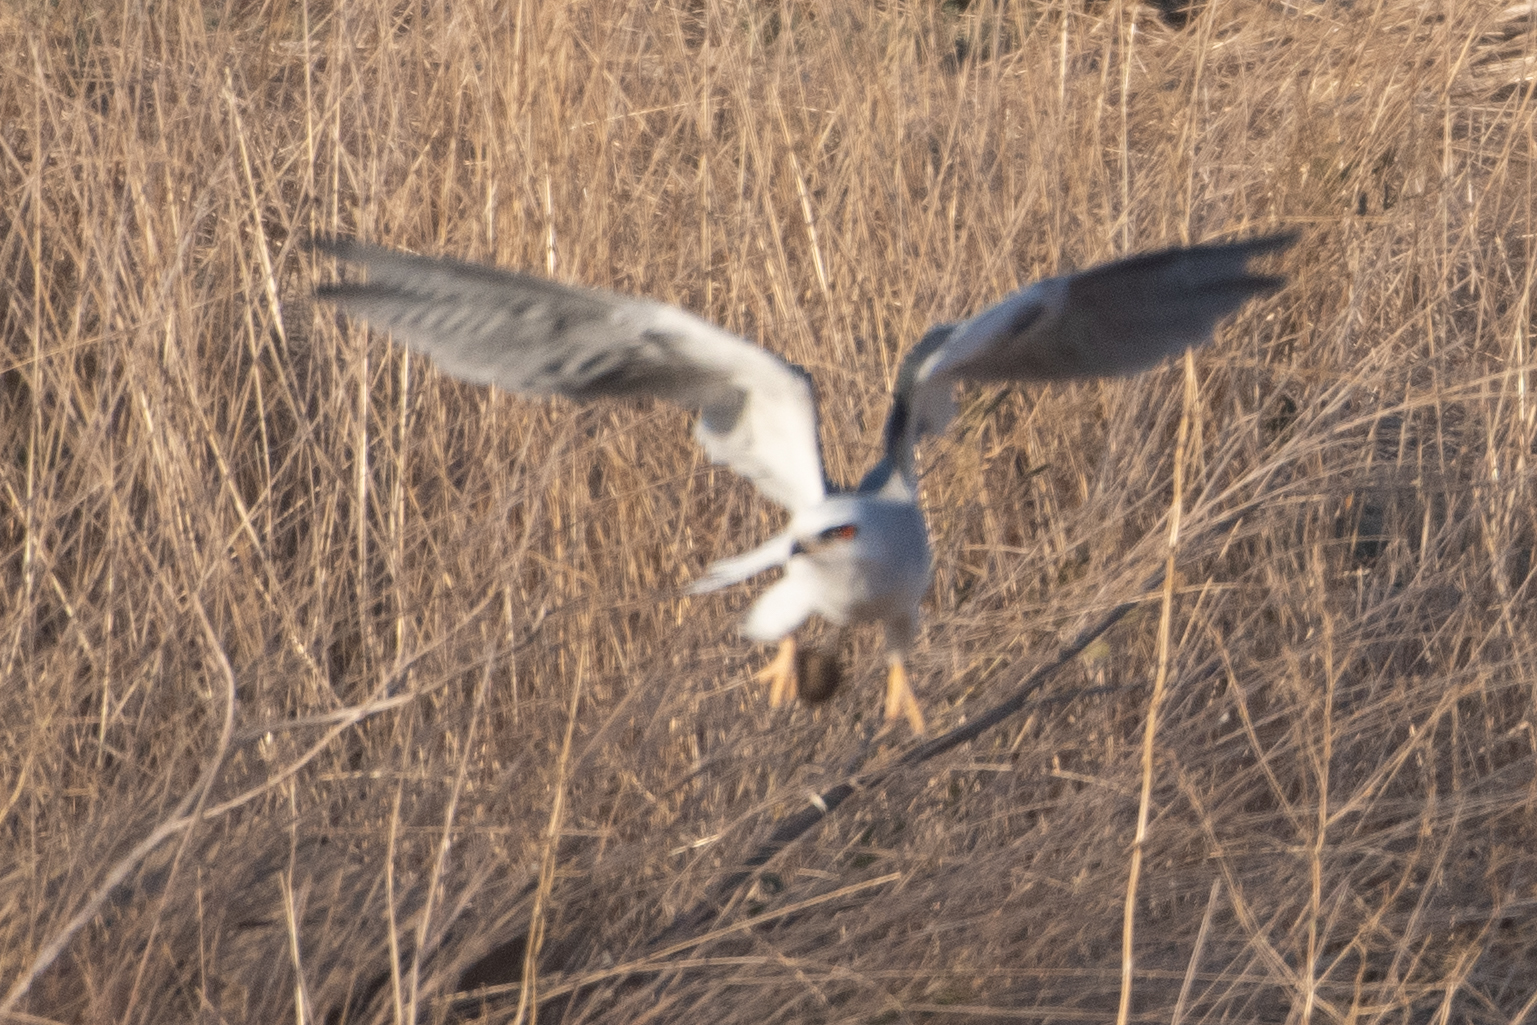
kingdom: Animalia
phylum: Chordata
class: Aves
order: Accipitriformes
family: Accipitridae
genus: Elanus
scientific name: Elanus leucurus
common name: White-tailed kite
